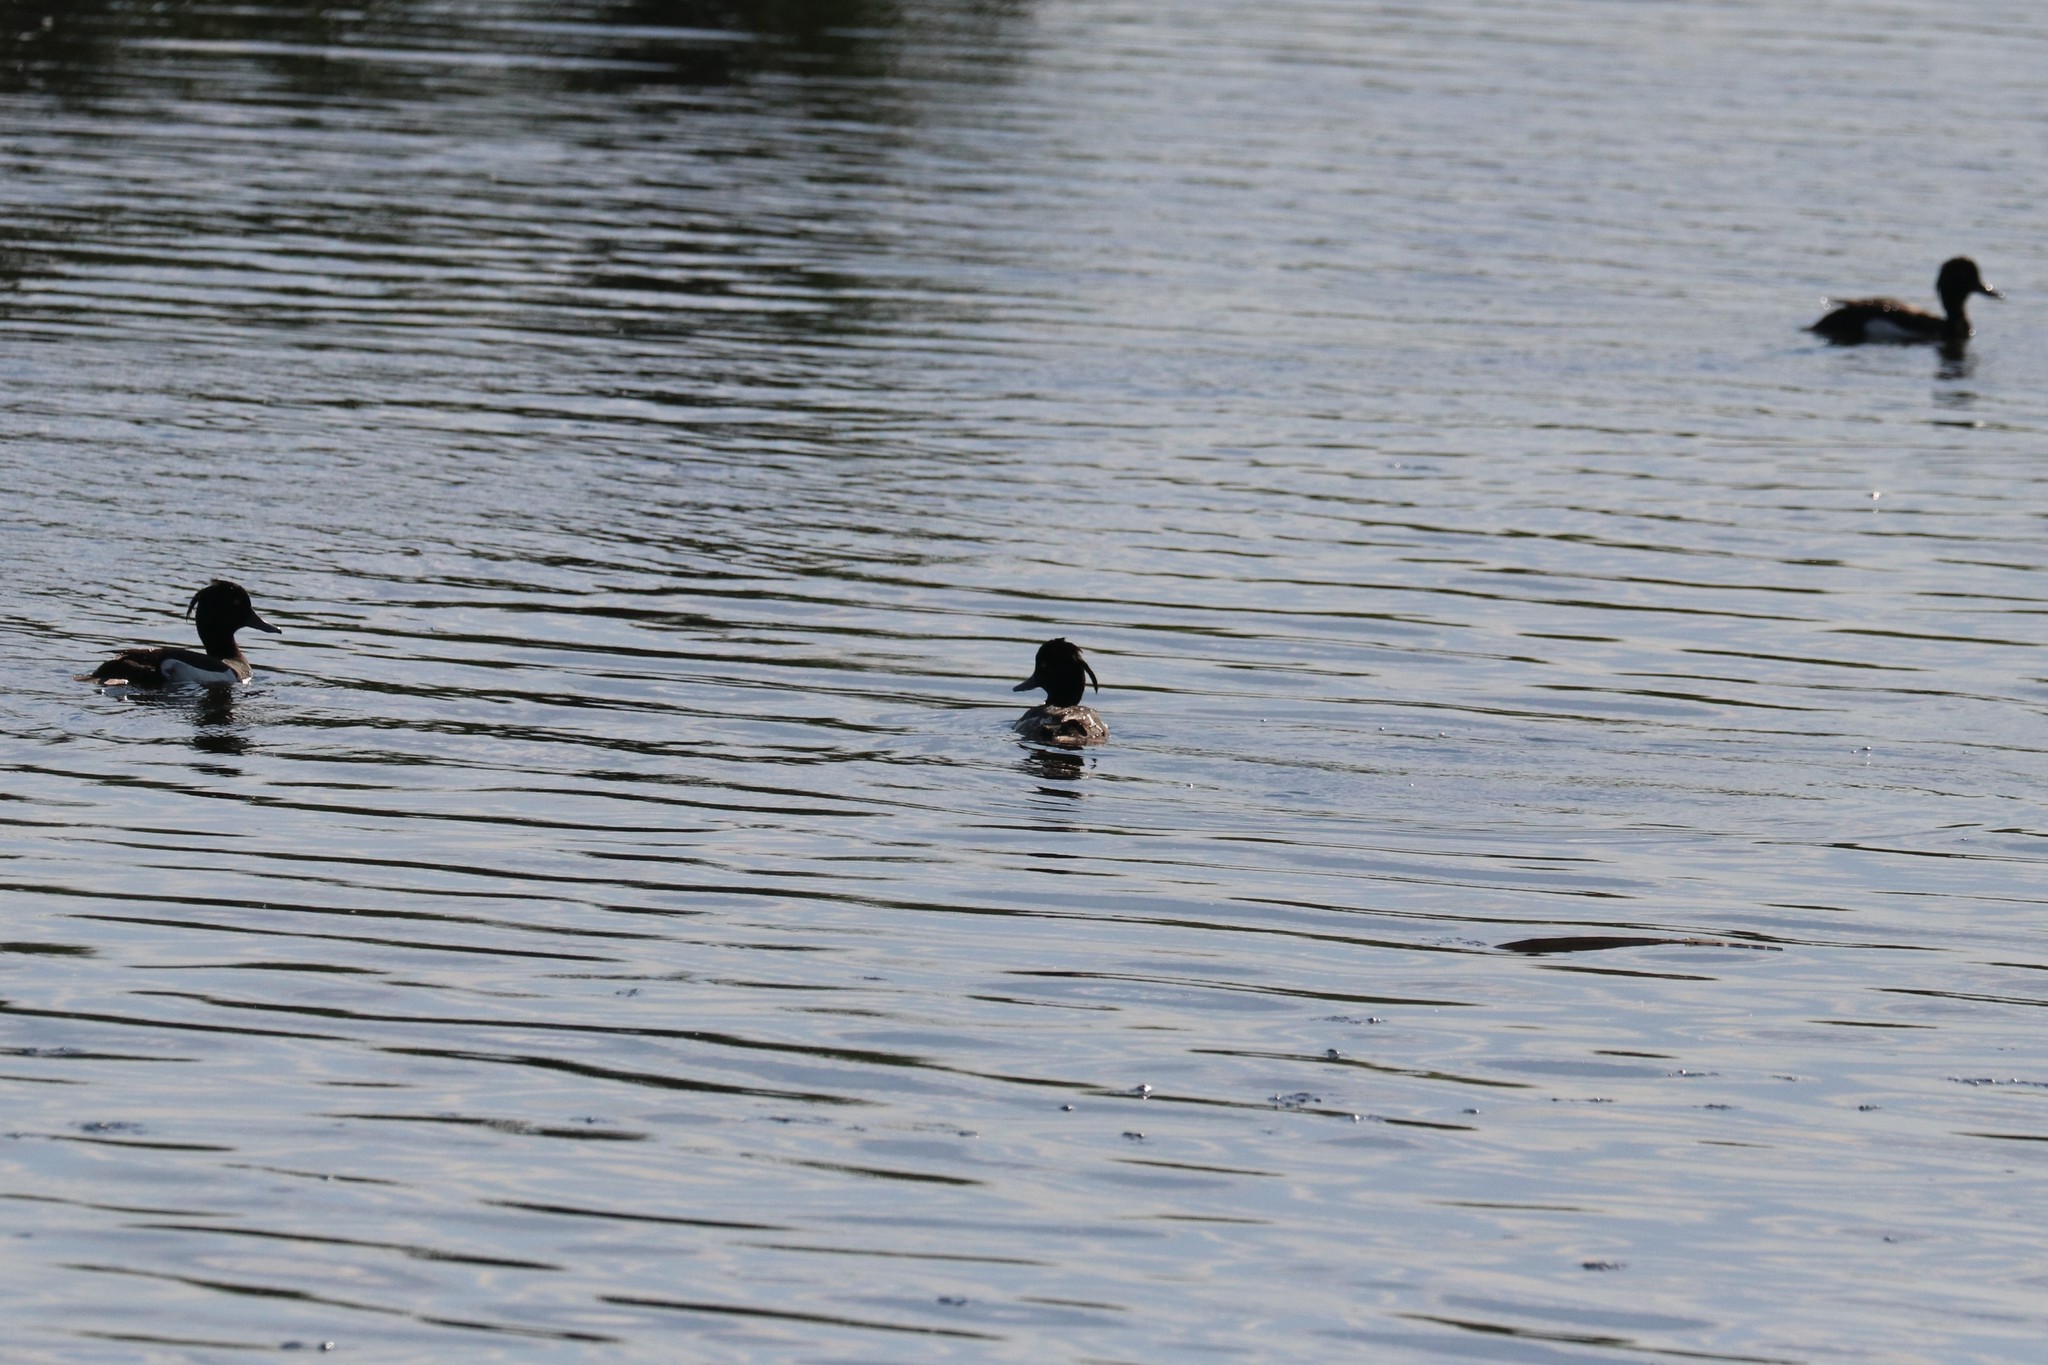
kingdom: Animalia
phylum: Chordata
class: Aves
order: Anseriformes
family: Anatidae
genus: Aythya
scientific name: Aythya fuligula
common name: Tufted duck
